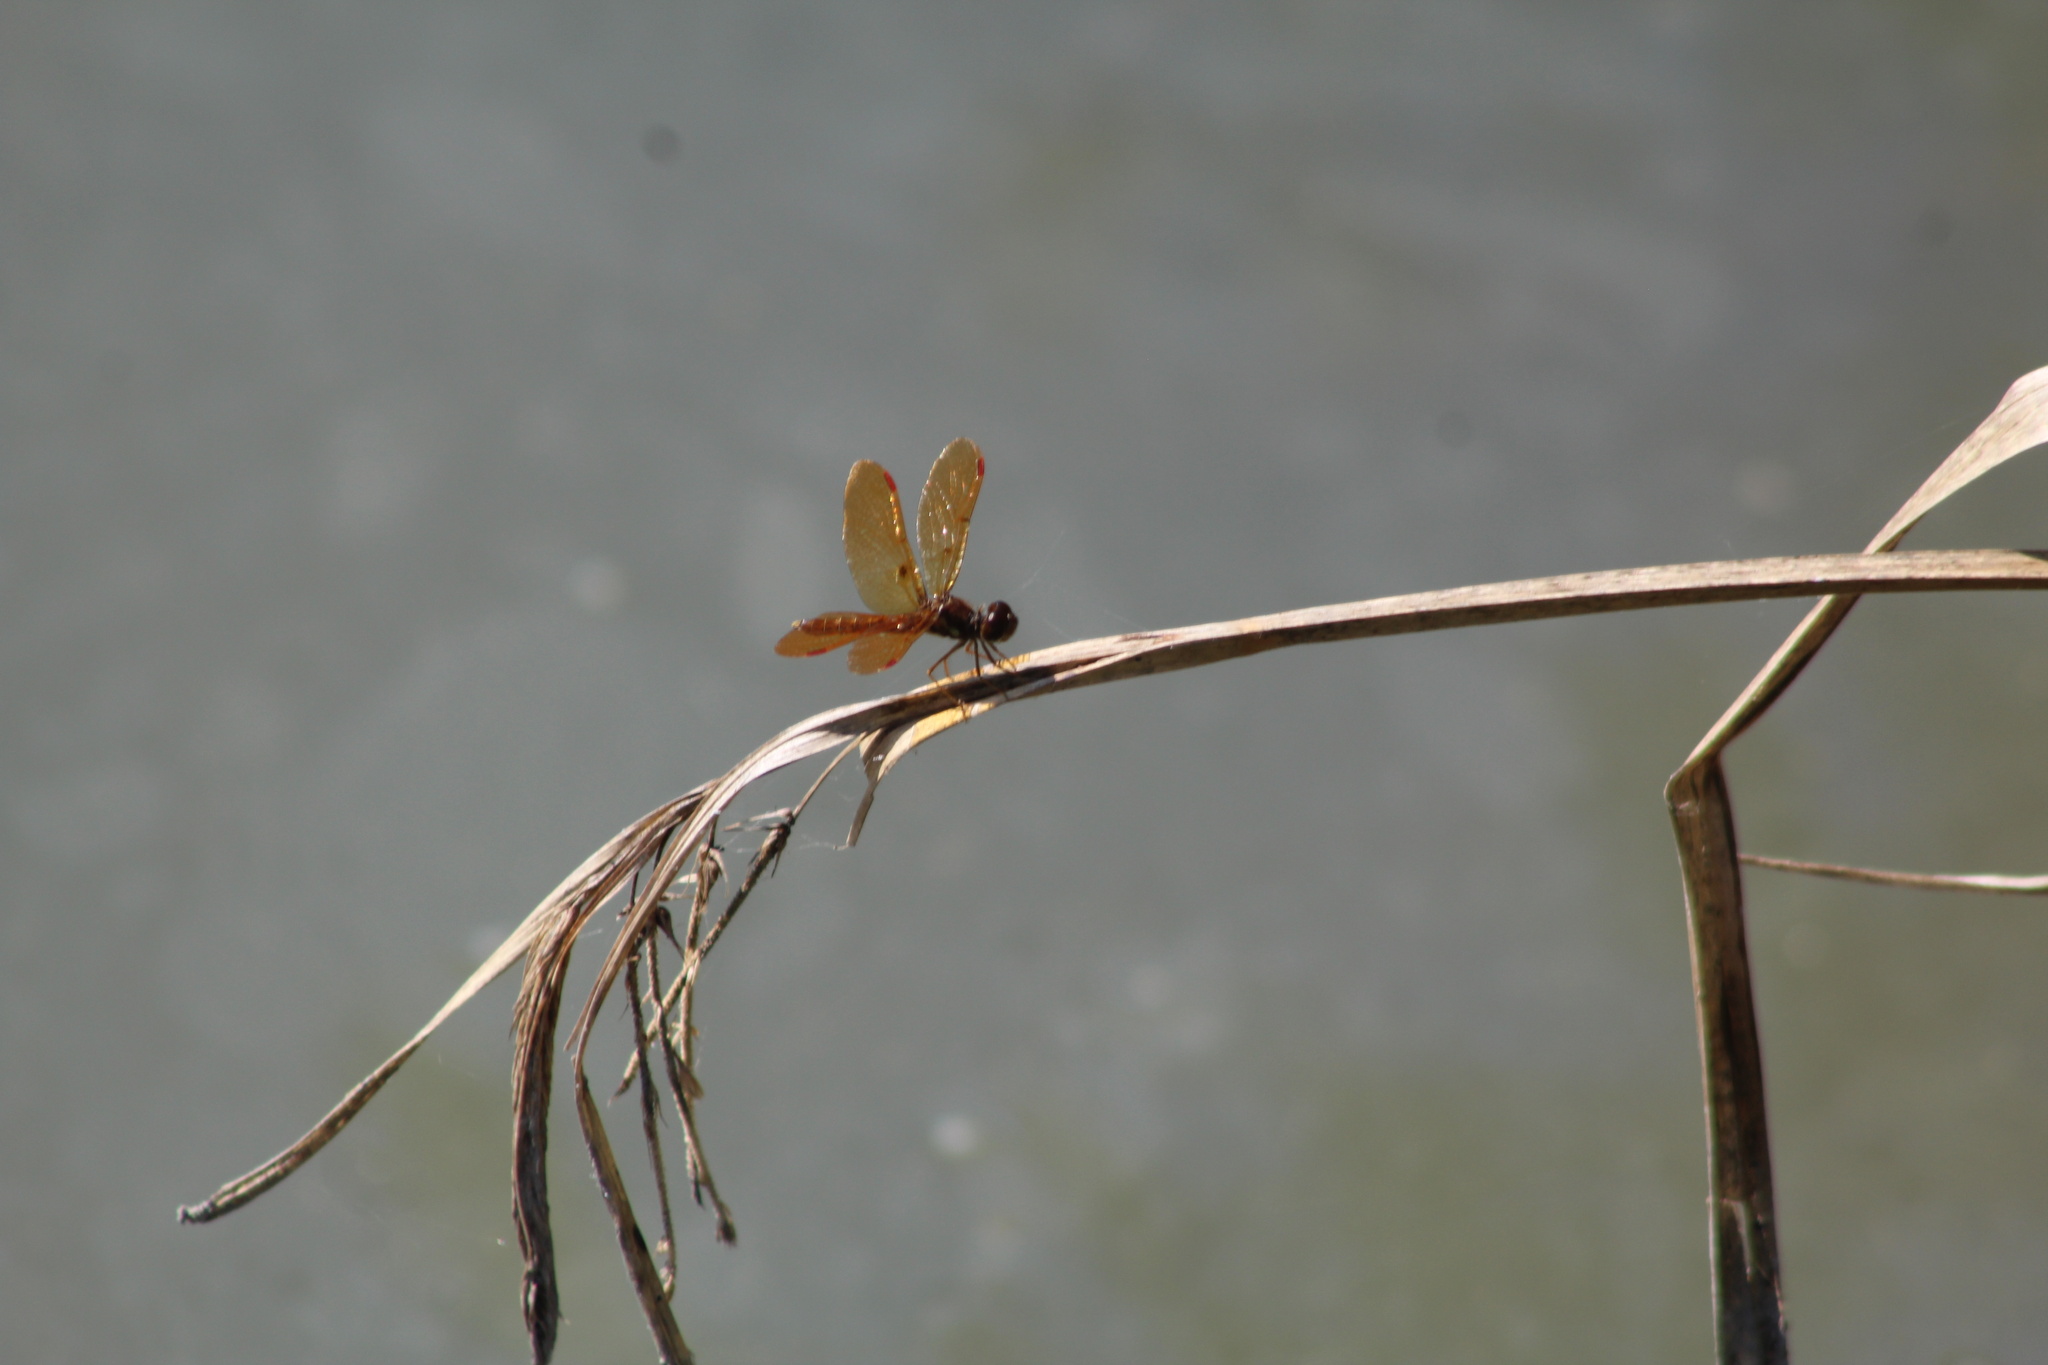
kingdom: Animalia
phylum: Arthropoda
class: Insecta
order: Odonata
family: Libellulidae
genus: Perithemis
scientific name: Perithemis tenera
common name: Eastern amberwing
